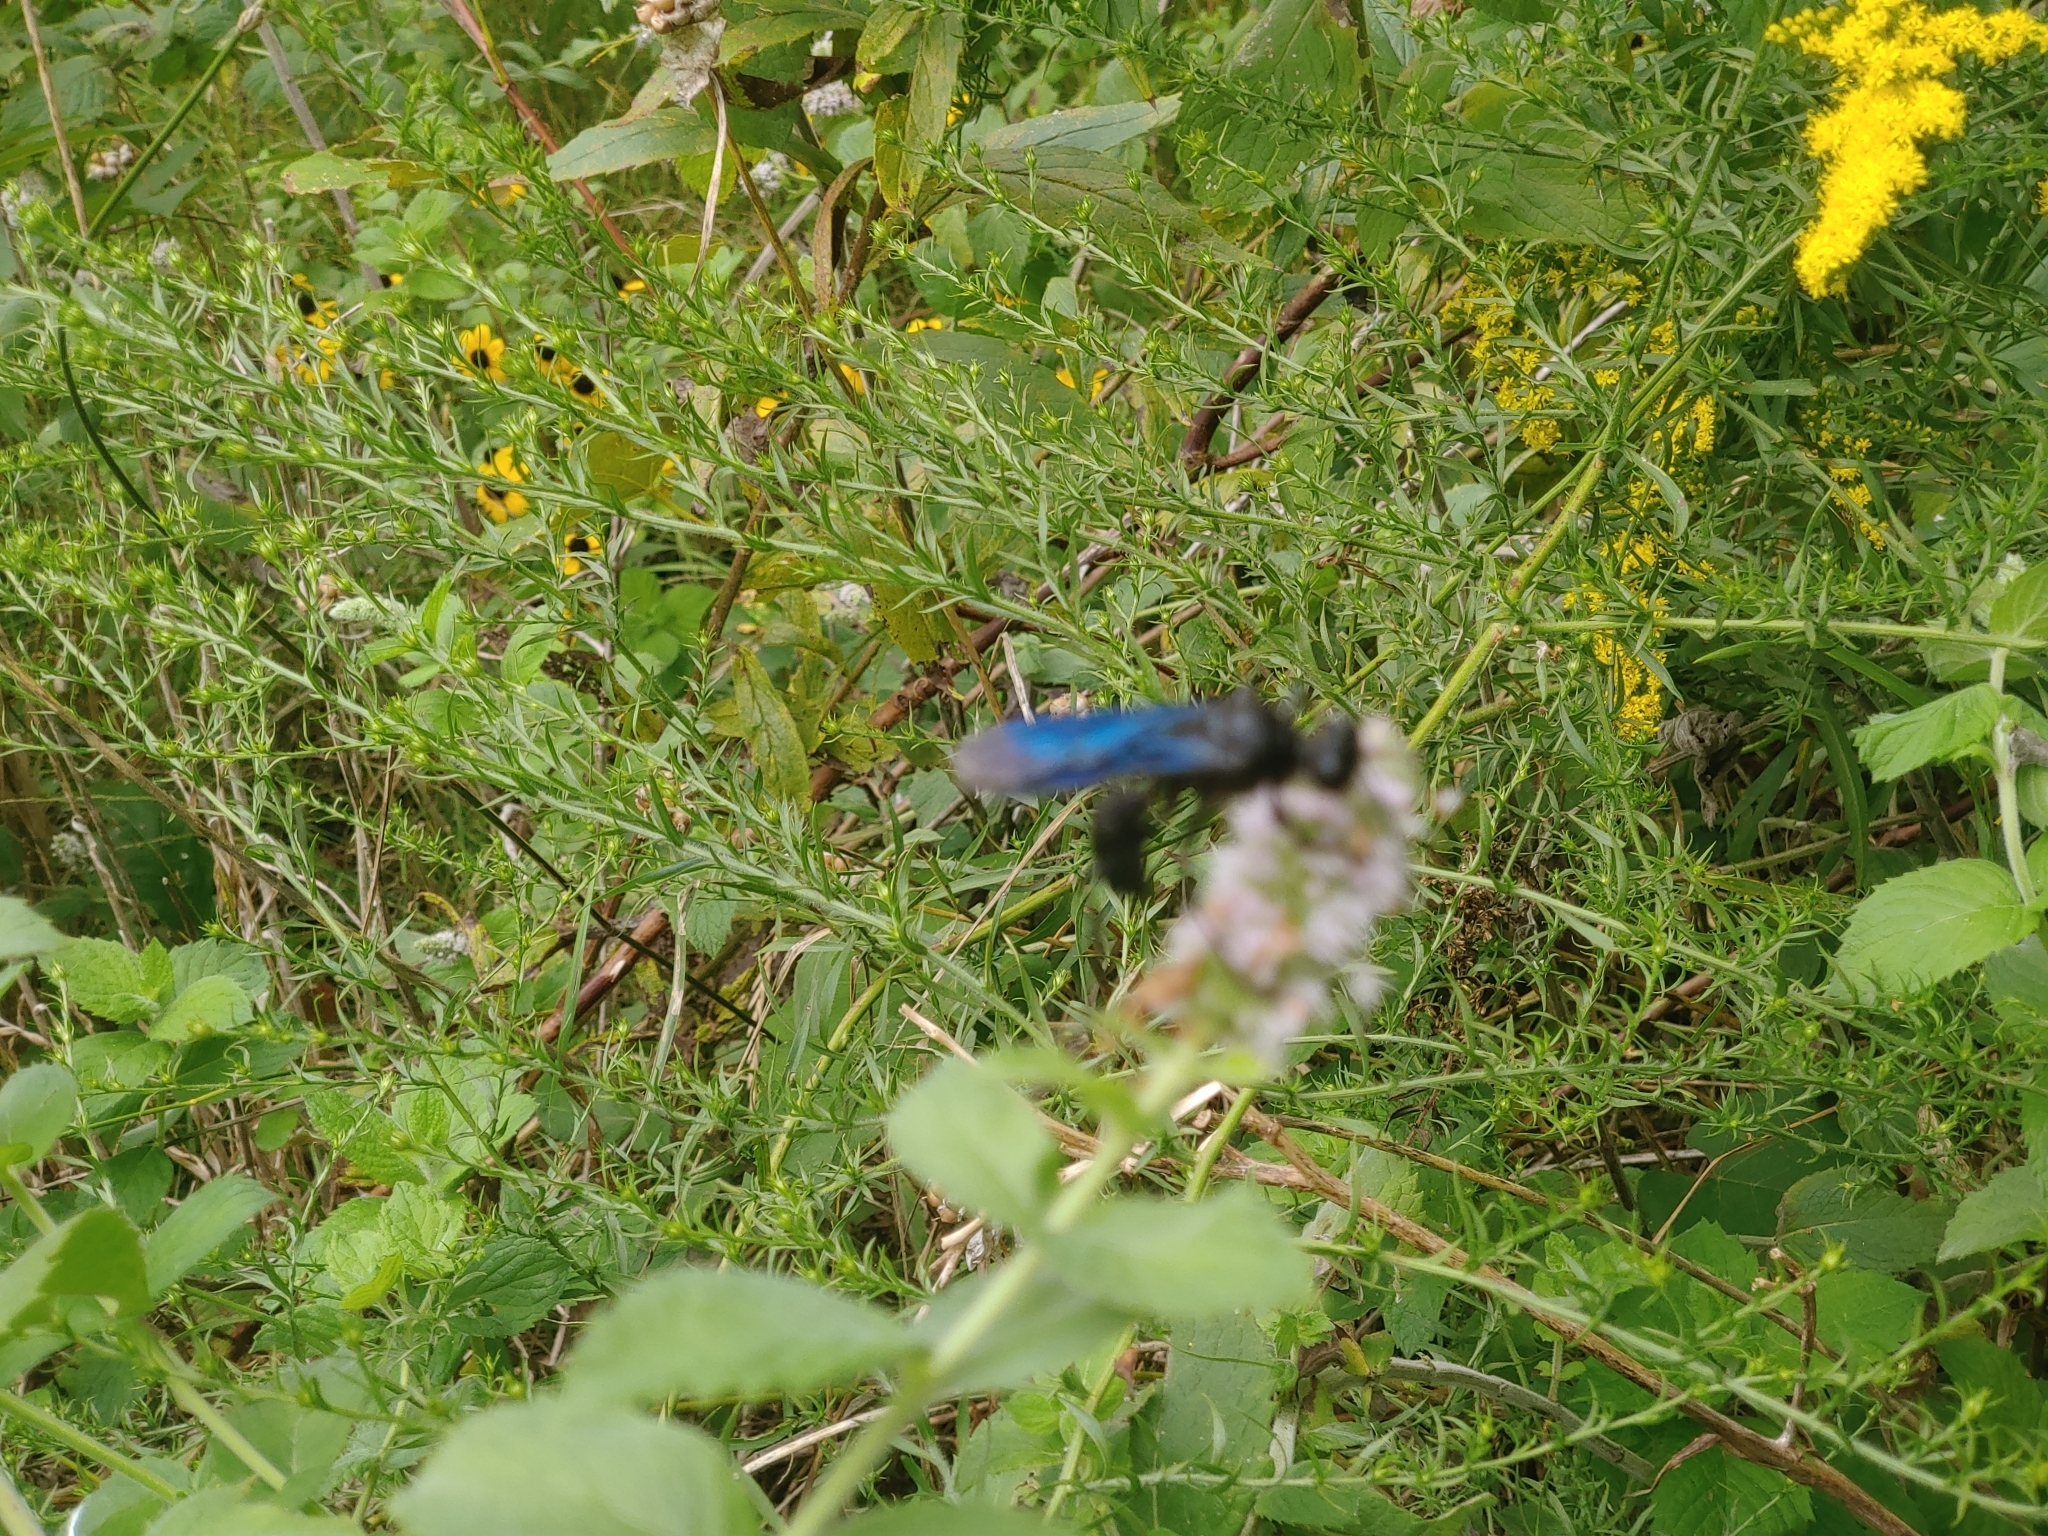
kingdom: Animalia
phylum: Arthropoda
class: Insecta
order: Hymenoptera
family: Sphecidae
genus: Sphex
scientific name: Sphex pensylvanicus
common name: Great black digger wasp
